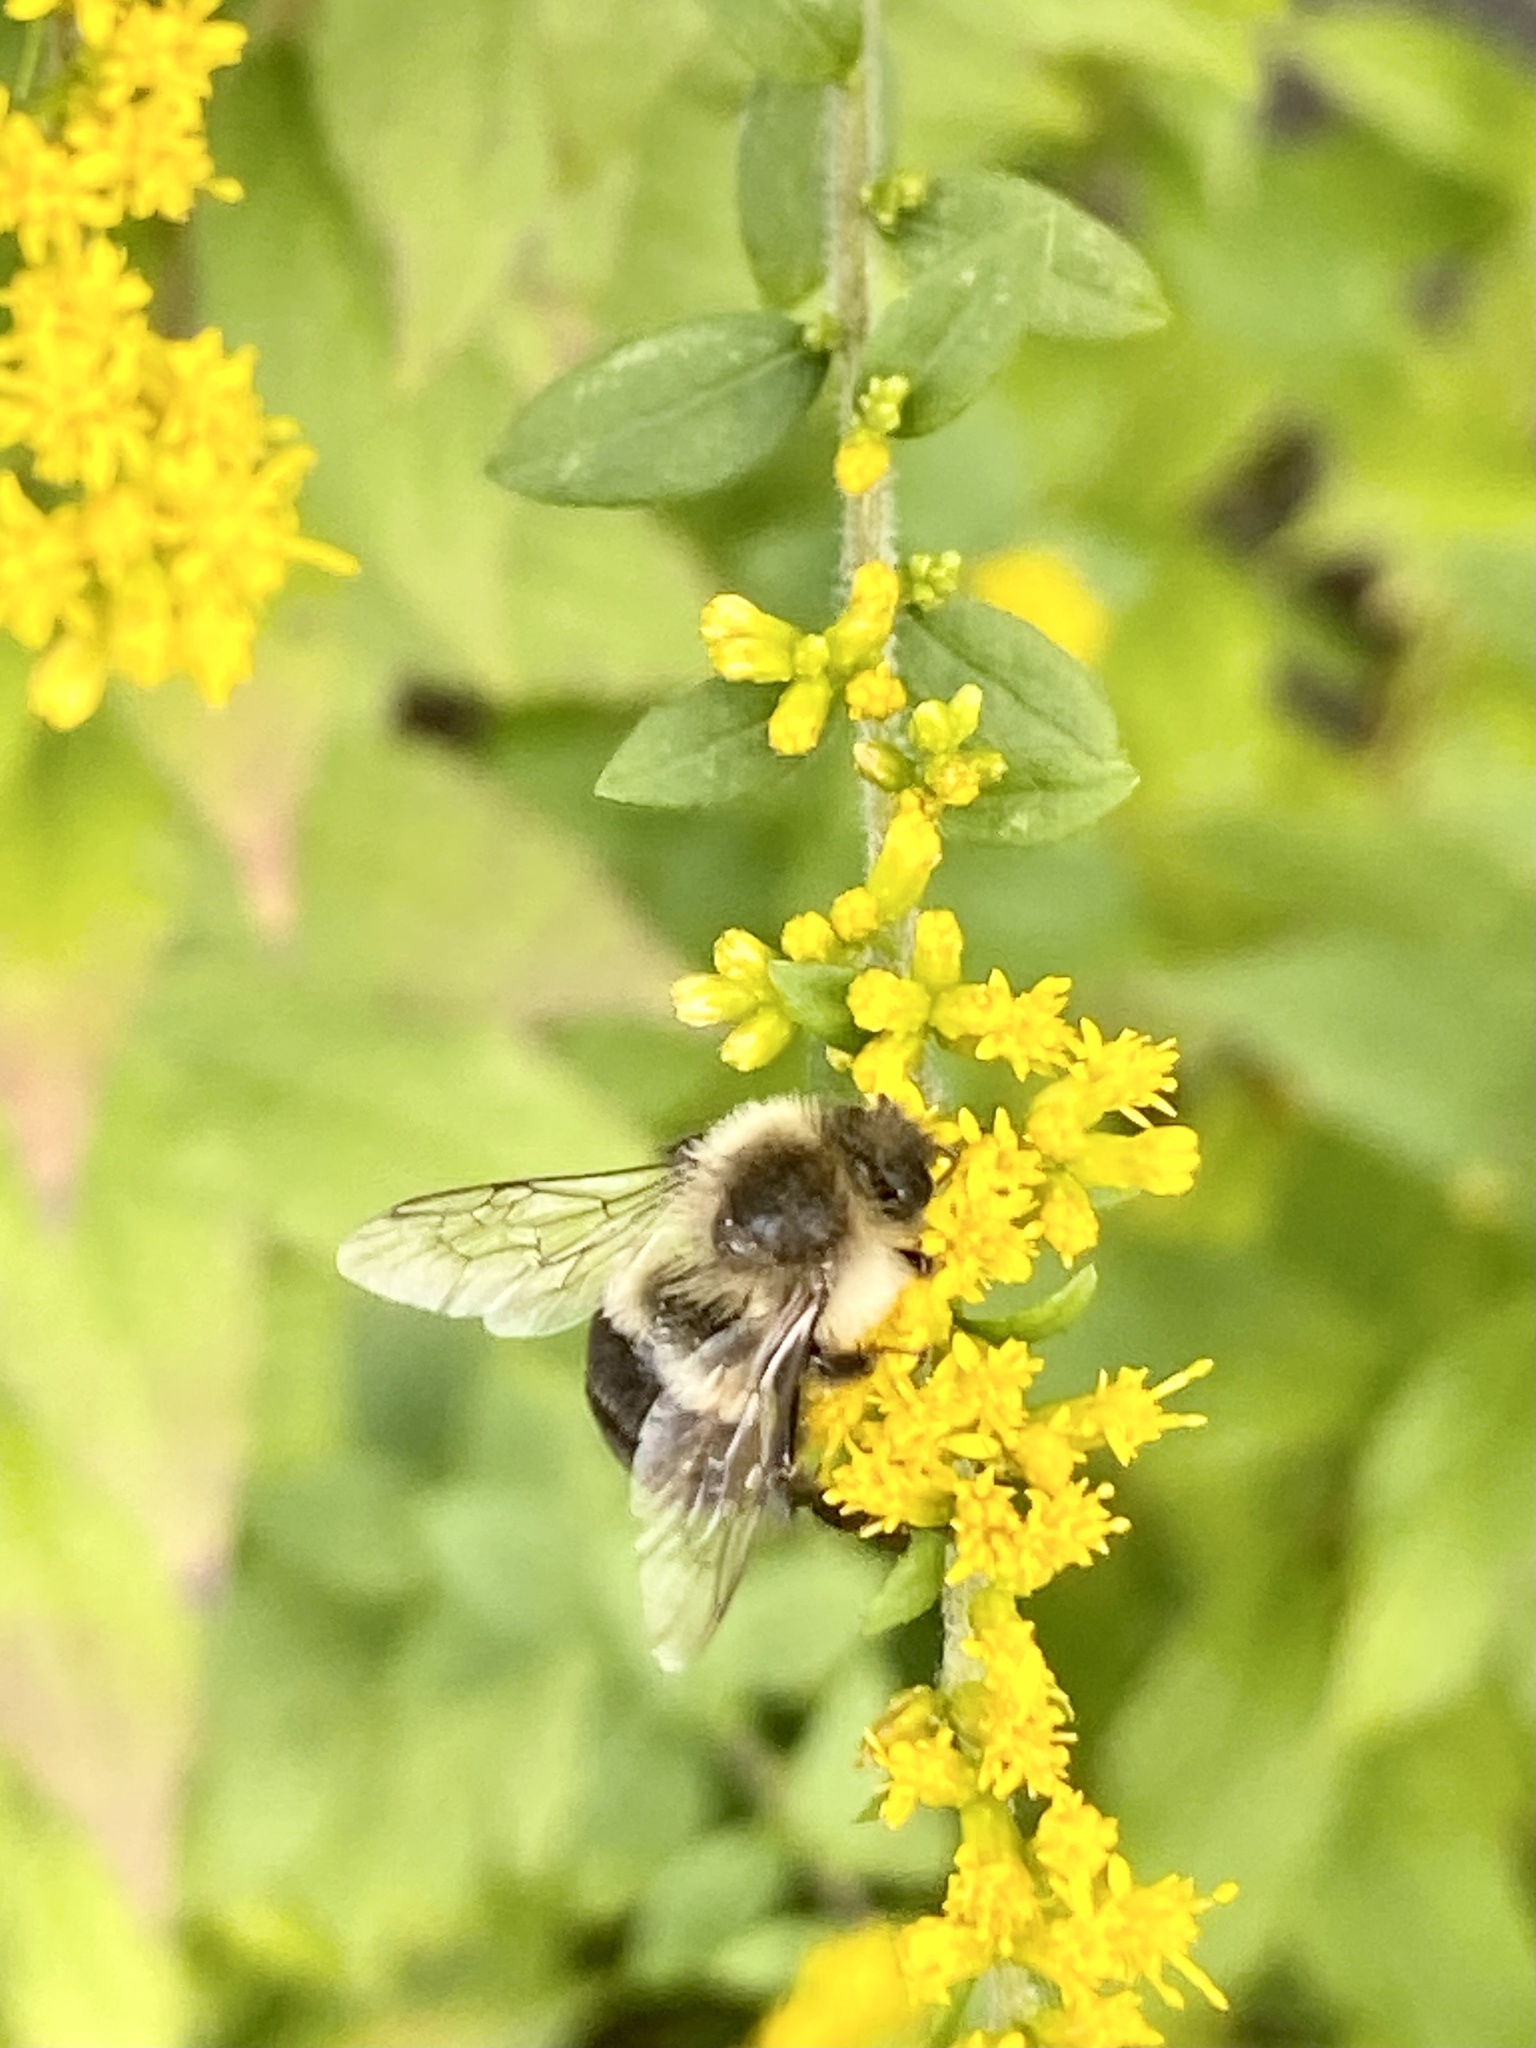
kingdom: Animalia
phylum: Arthropoda
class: Insecta
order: Hymenoptera
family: Apidae
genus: Bombus
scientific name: Bombus impatiens
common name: Common eastern bumble bee
